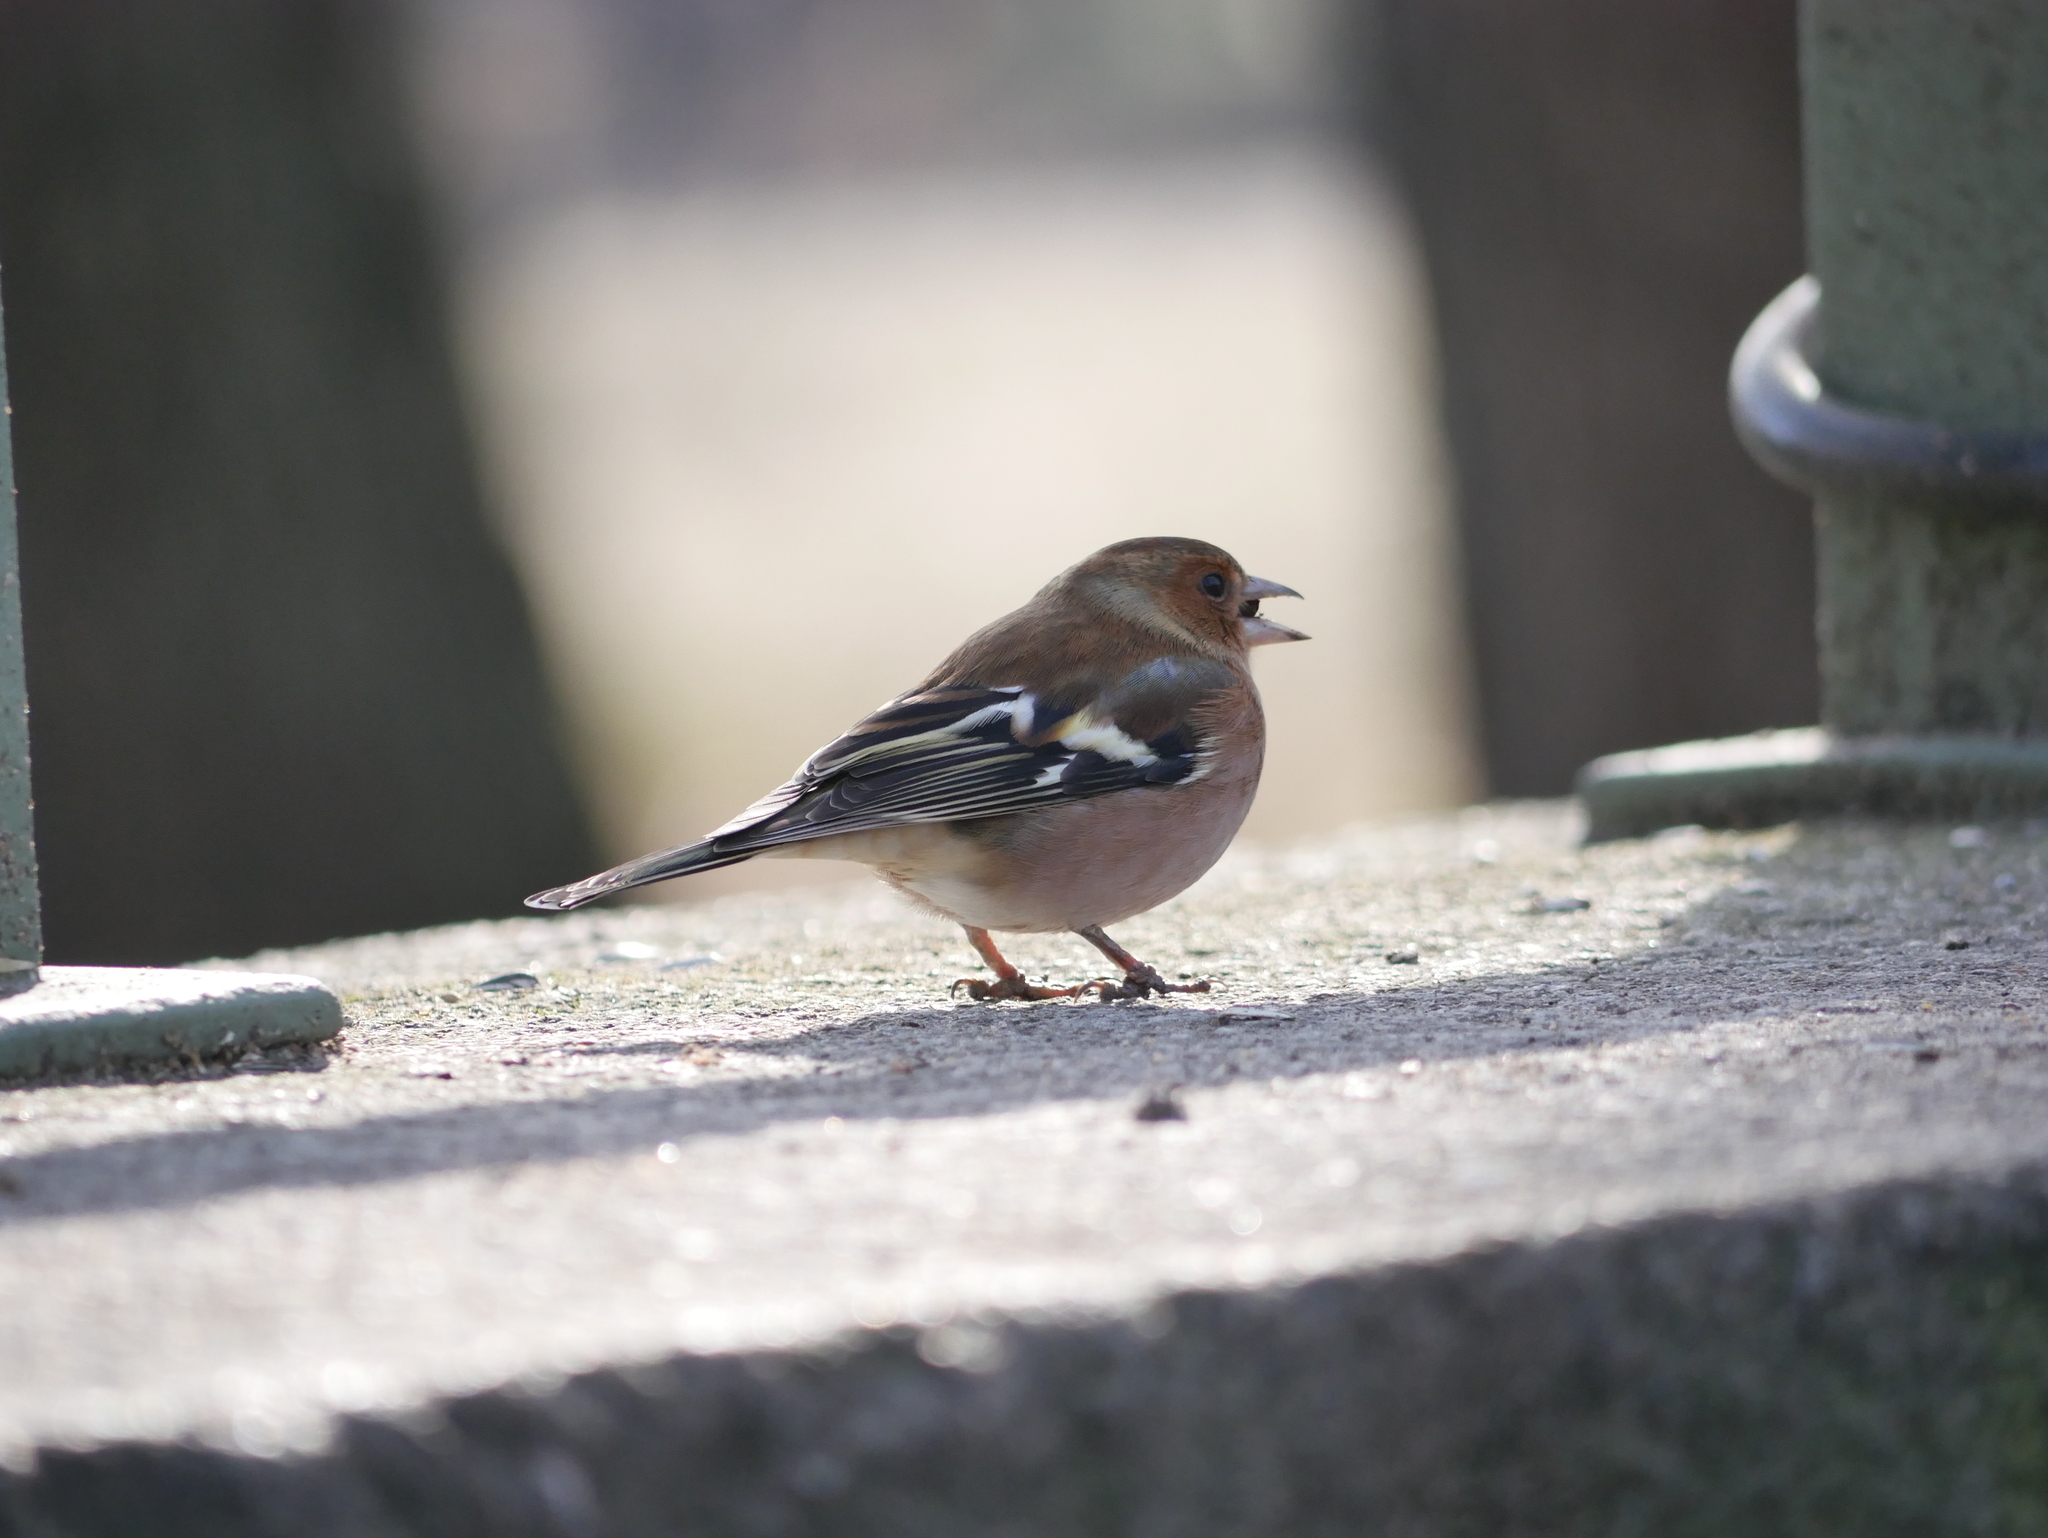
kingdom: Animalia
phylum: Chordata
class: Aves
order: Passeriformes
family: Fringillidae
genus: Fringilla
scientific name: Fringilla coelebs
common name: Common chaffinch
